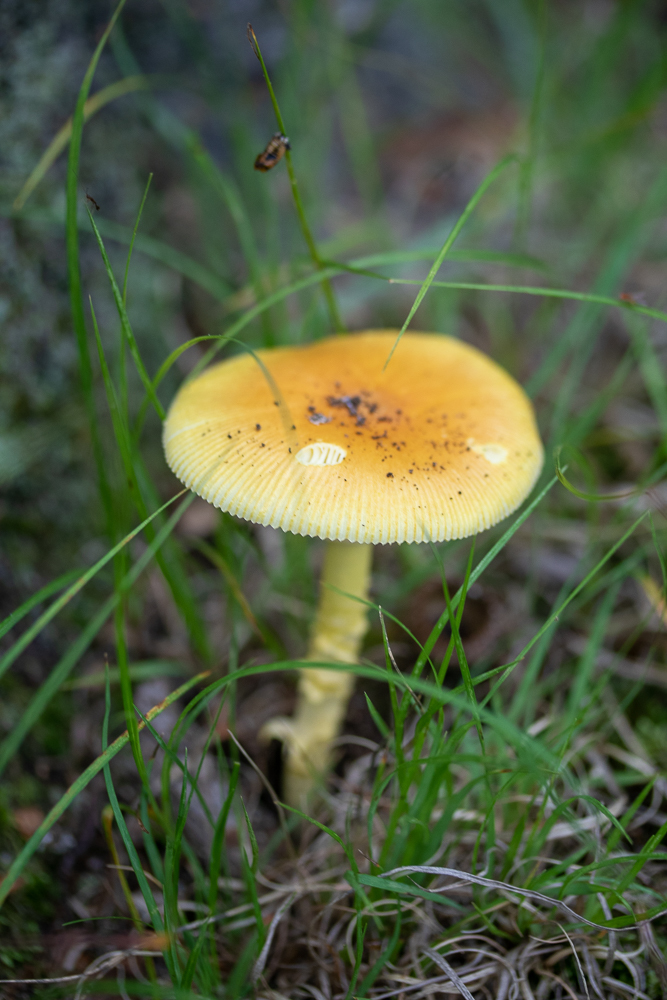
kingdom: Fungi
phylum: Basidiomycota
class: Agaricomycetes
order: Agaricales
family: Amanitaceae
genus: Amanita
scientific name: Amanita flavoconia
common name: Yellow patches
